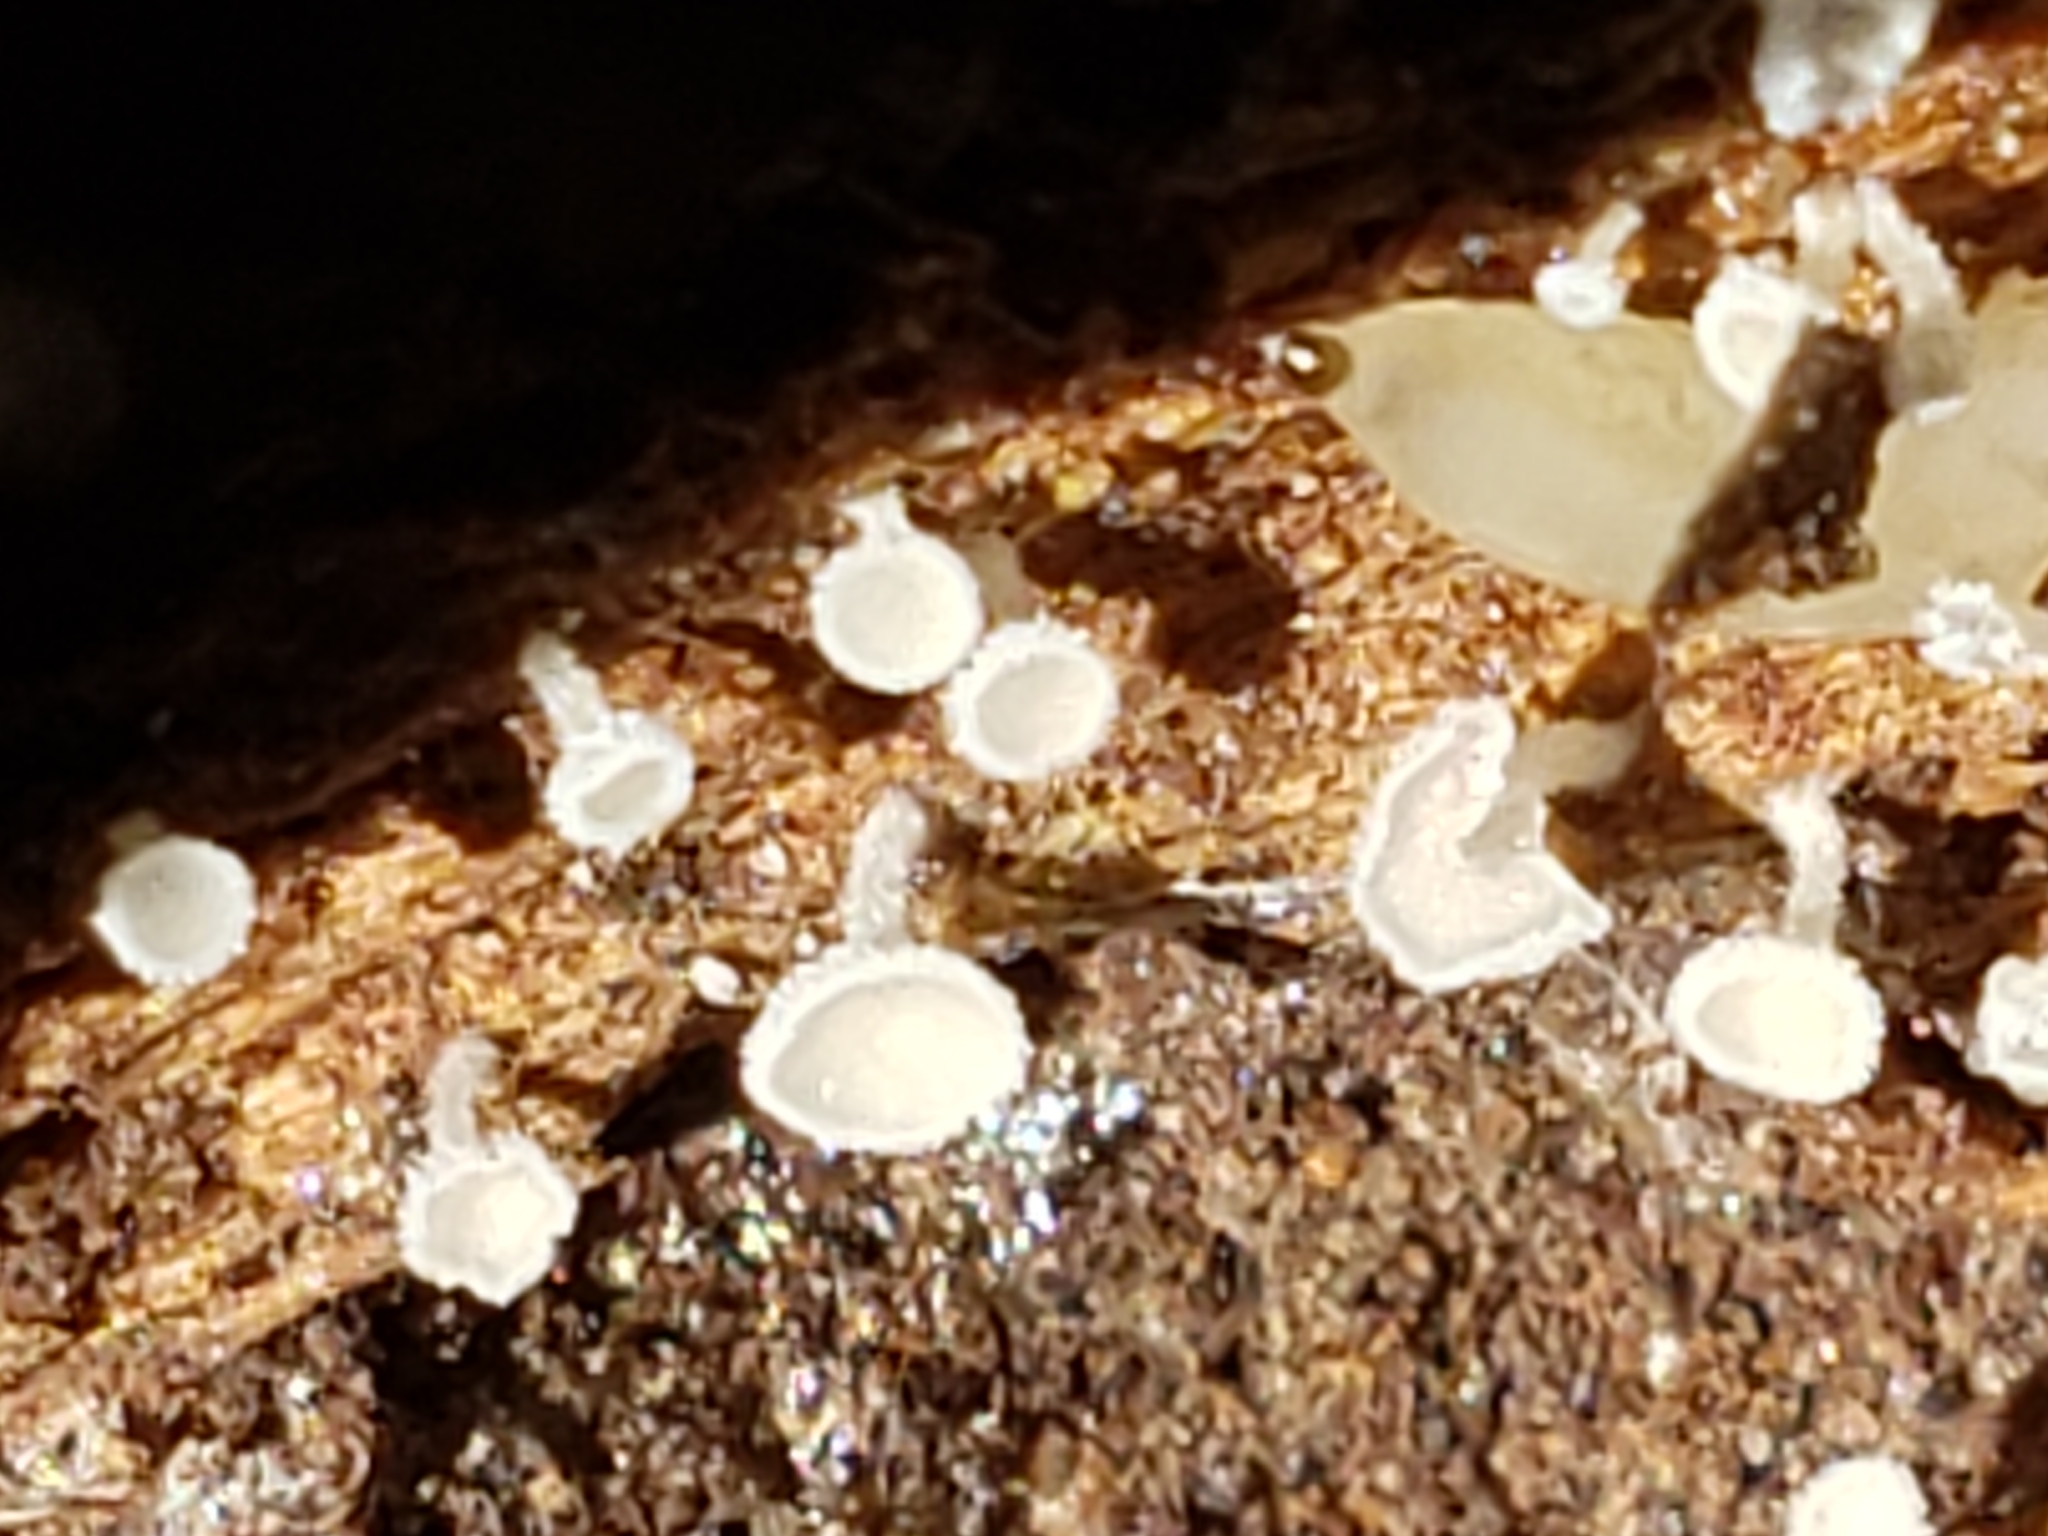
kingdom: Fungi
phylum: Ascomycota
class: Leotiomycetes
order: Helotiales
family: Lachnaceae
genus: Lachnum
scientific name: Lachnum virgineum
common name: Snowy disco
